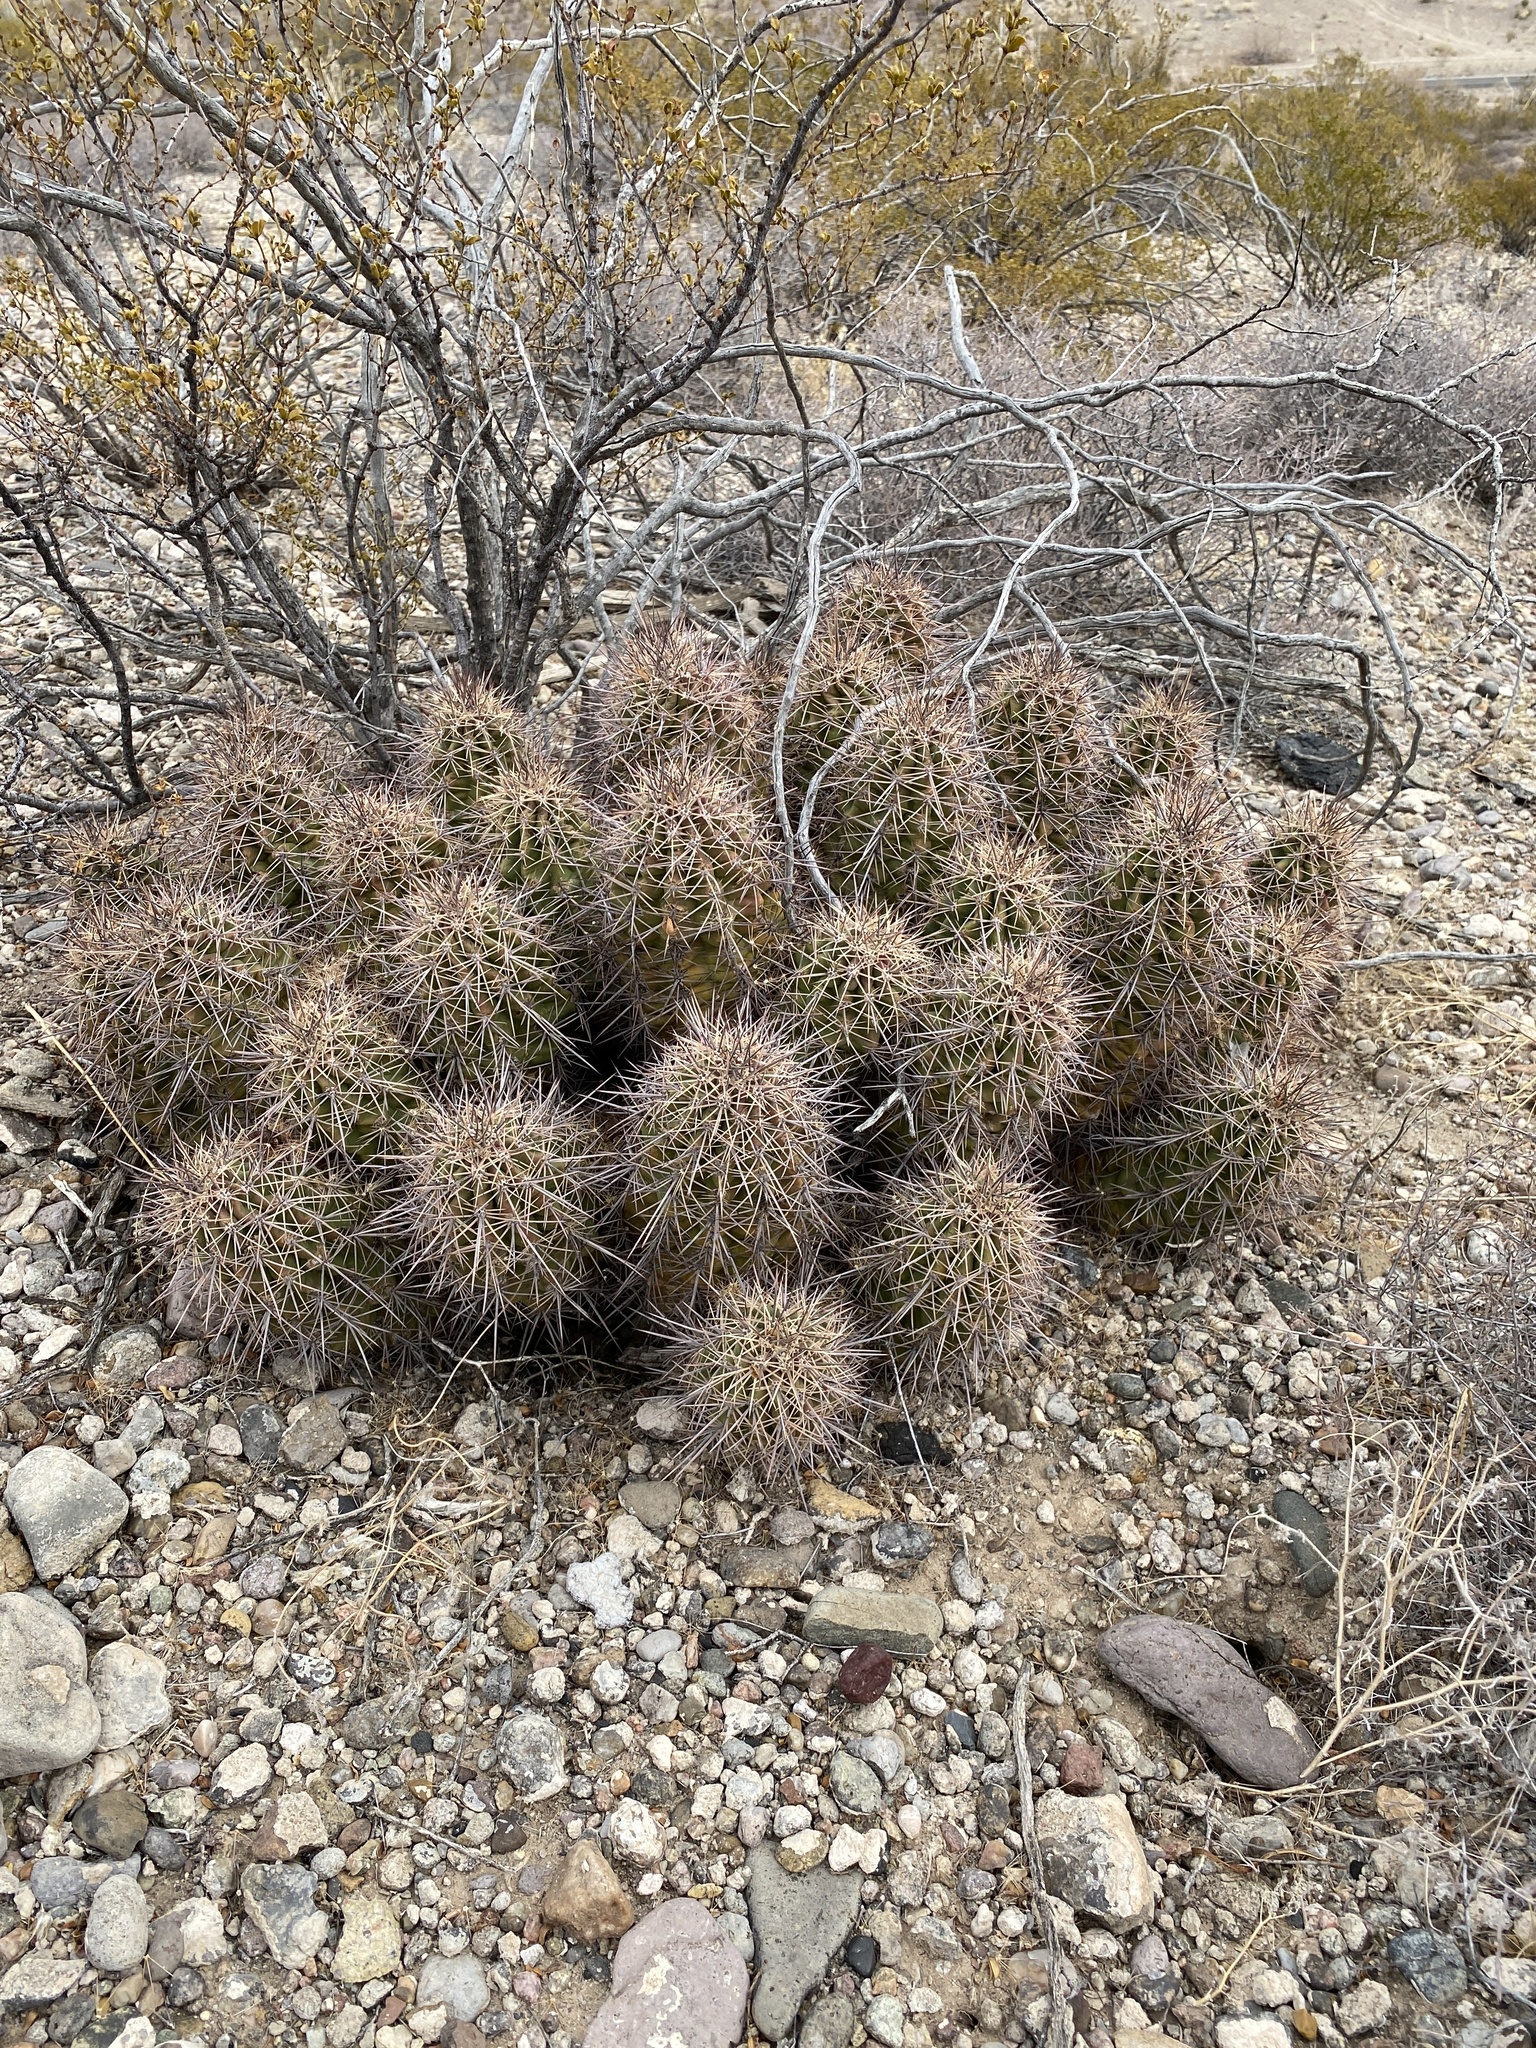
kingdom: Plantae
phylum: Tracheophyta
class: Magnoliopsida
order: Caryophyllales
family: Cactaceae
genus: Echinocereus
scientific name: Echinocereus coccineus
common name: Scarlet hedgehog cactus
